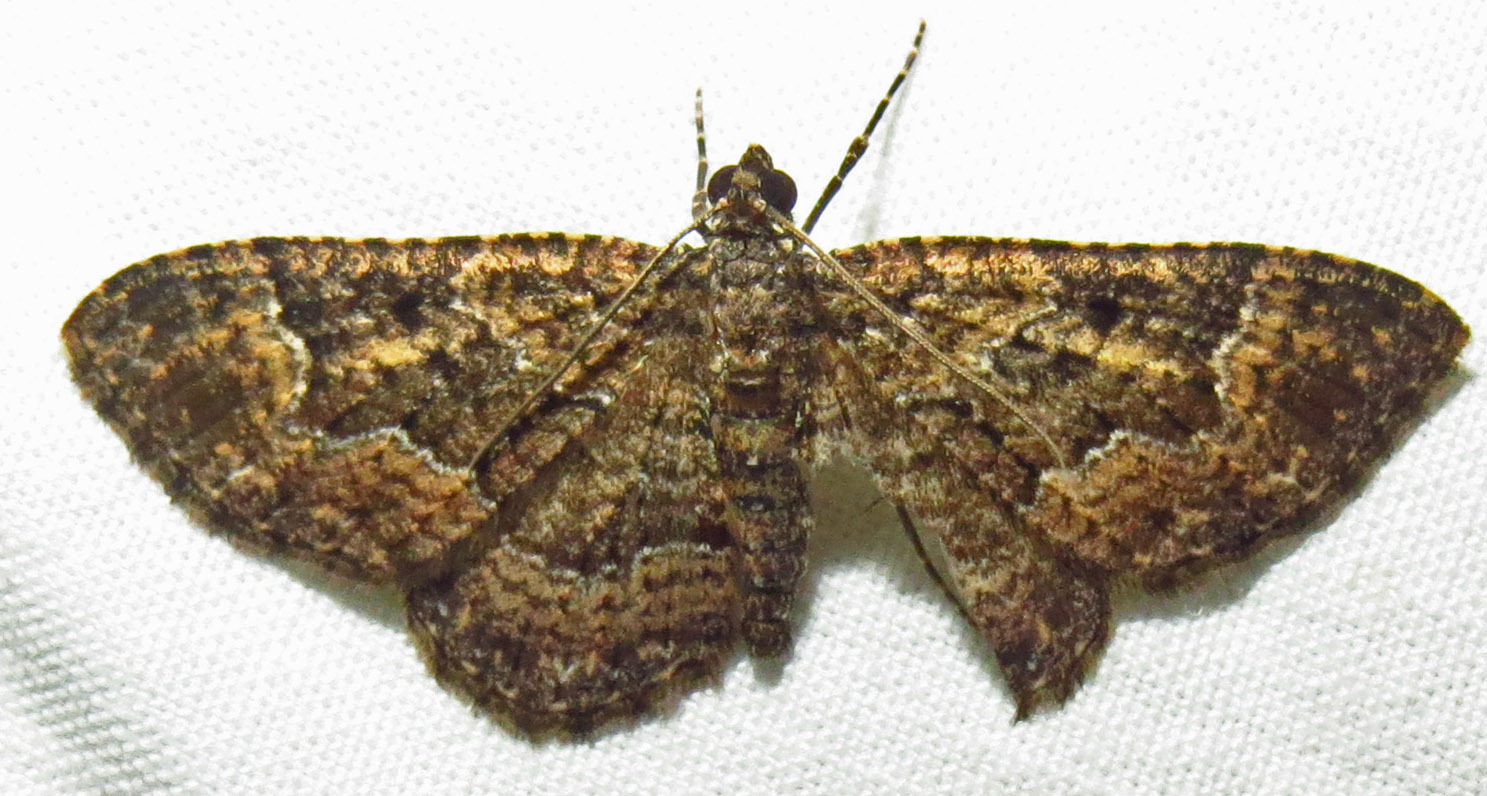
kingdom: Animalia
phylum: Arthropoda
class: Insecta
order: Lepidoptera
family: Geometridae
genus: Disclisioprocta
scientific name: Disclisioprocta stellata
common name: Somber carpet
